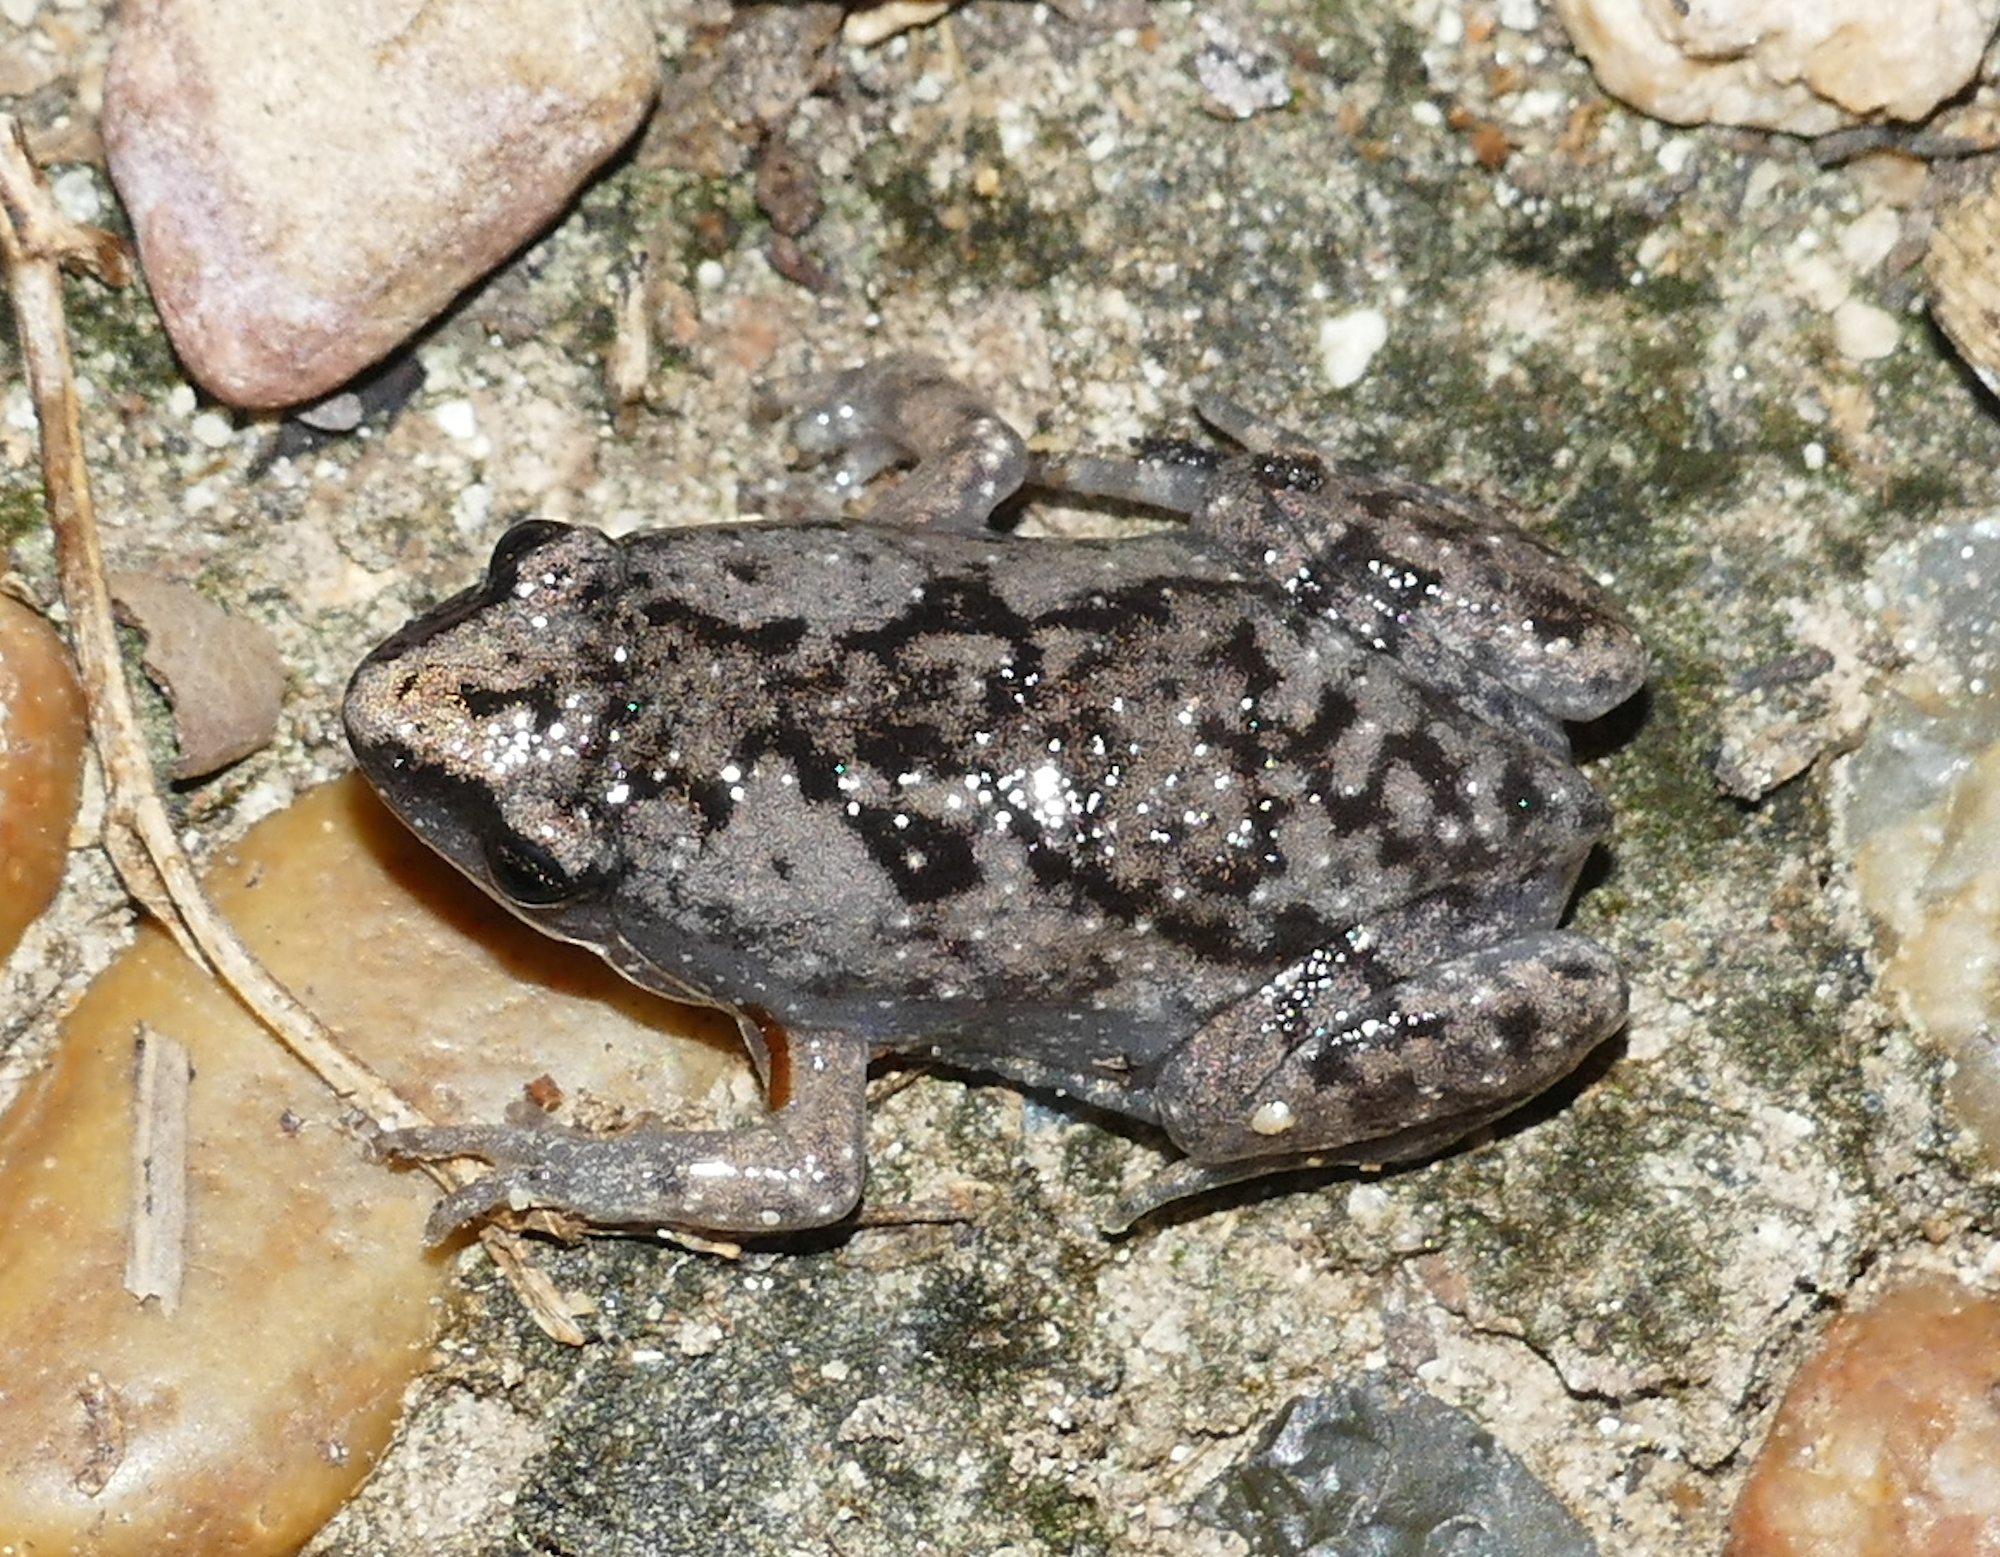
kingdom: Animalia
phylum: Chordata
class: Amphibia
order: Anura
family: Microhylidae
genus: Gastrophryne
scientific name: Gastrophryne carolinensis
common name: Eastern narrowmouth toad
